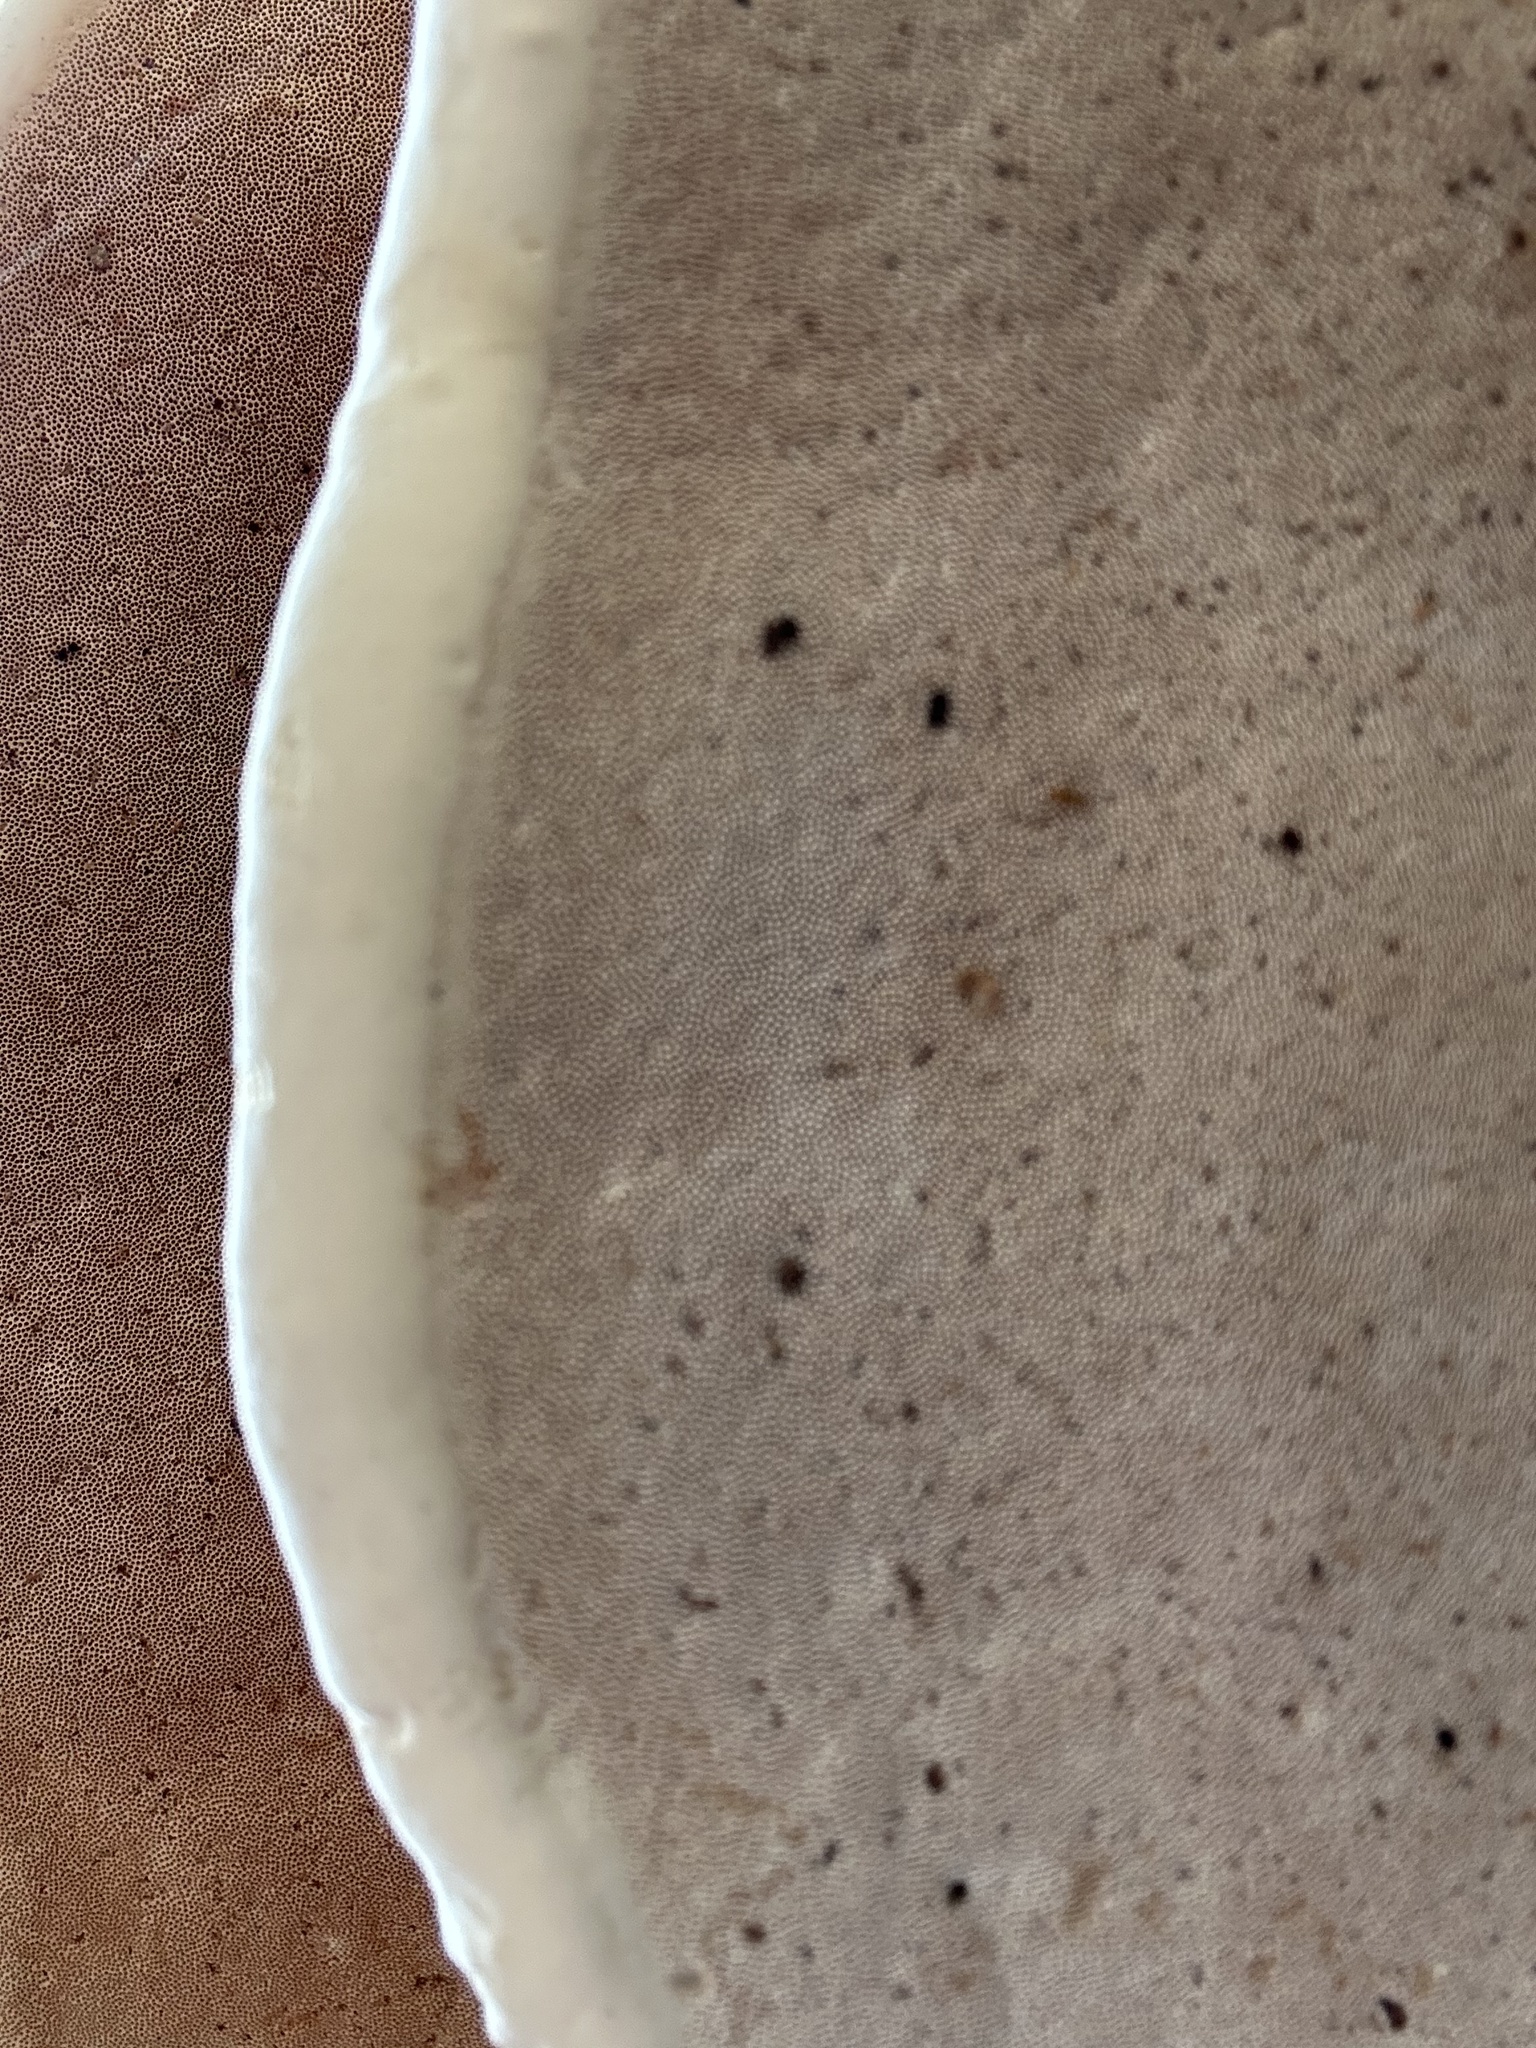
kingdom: Fungi
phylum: Basidiomycota
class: Agaricomycetes
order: Polyporales
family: Fomitopsidaceae
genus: Fomitopsis
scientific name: Fomitopsis mounceae
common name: Northern red belt
